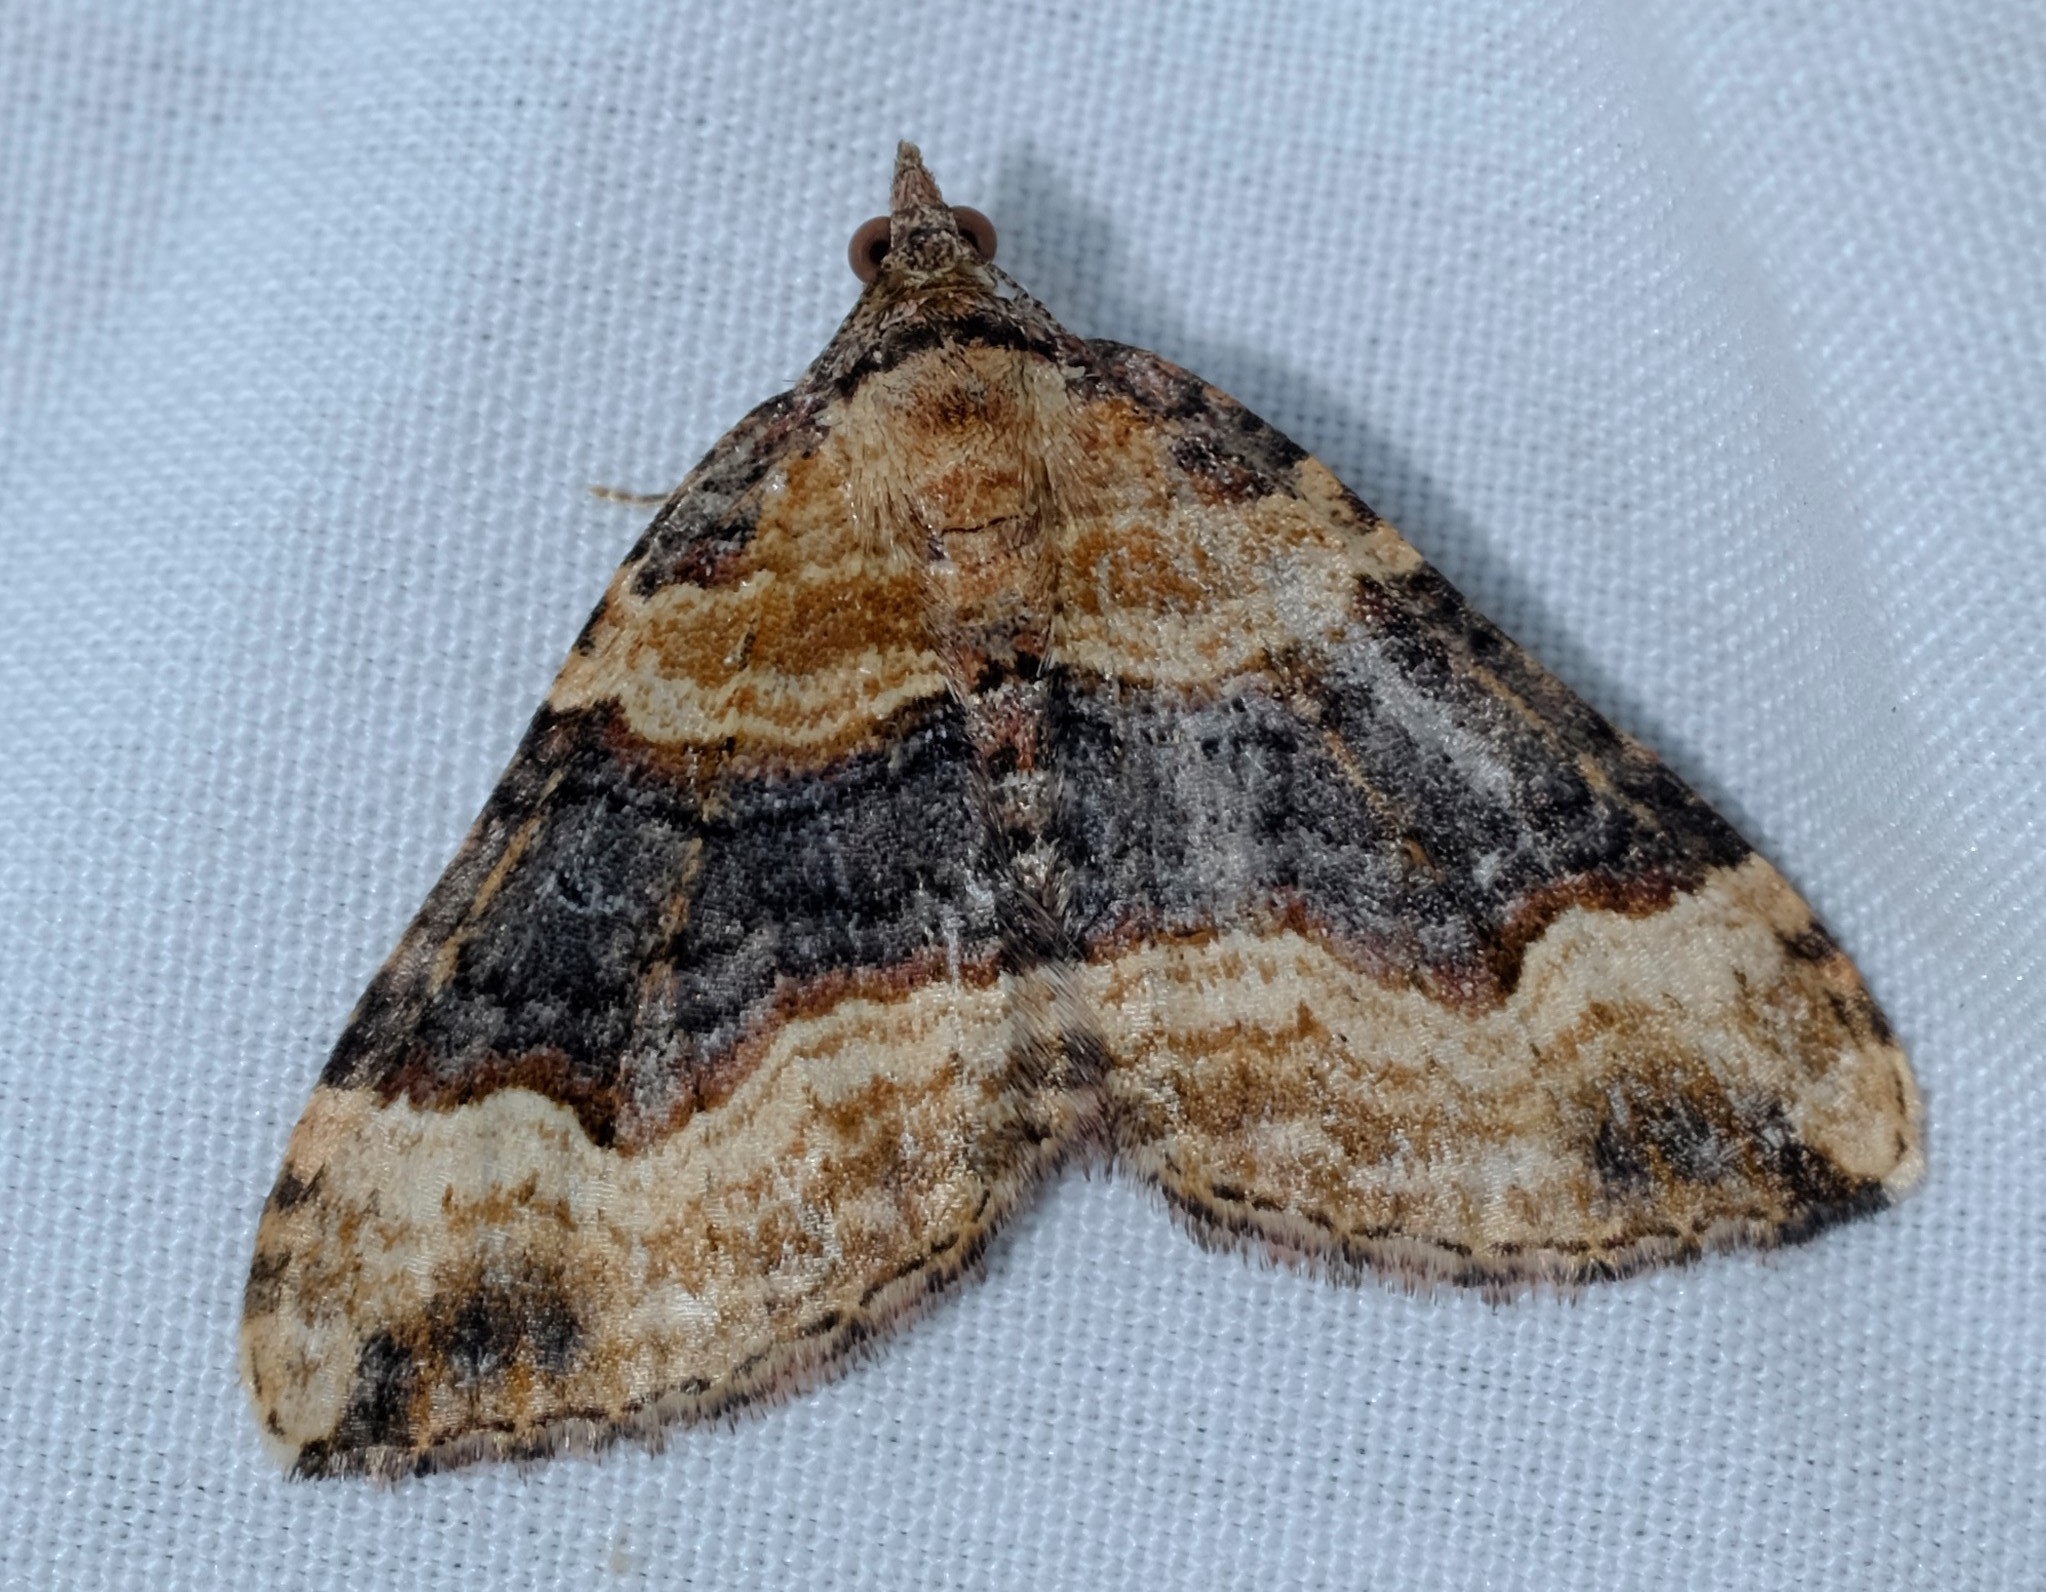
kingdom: Animalia
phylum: Arthropoda
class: Insecta
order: Lepidoptera
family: Geometridae
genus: Epyaxa
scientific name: Epyaxa subidaria
